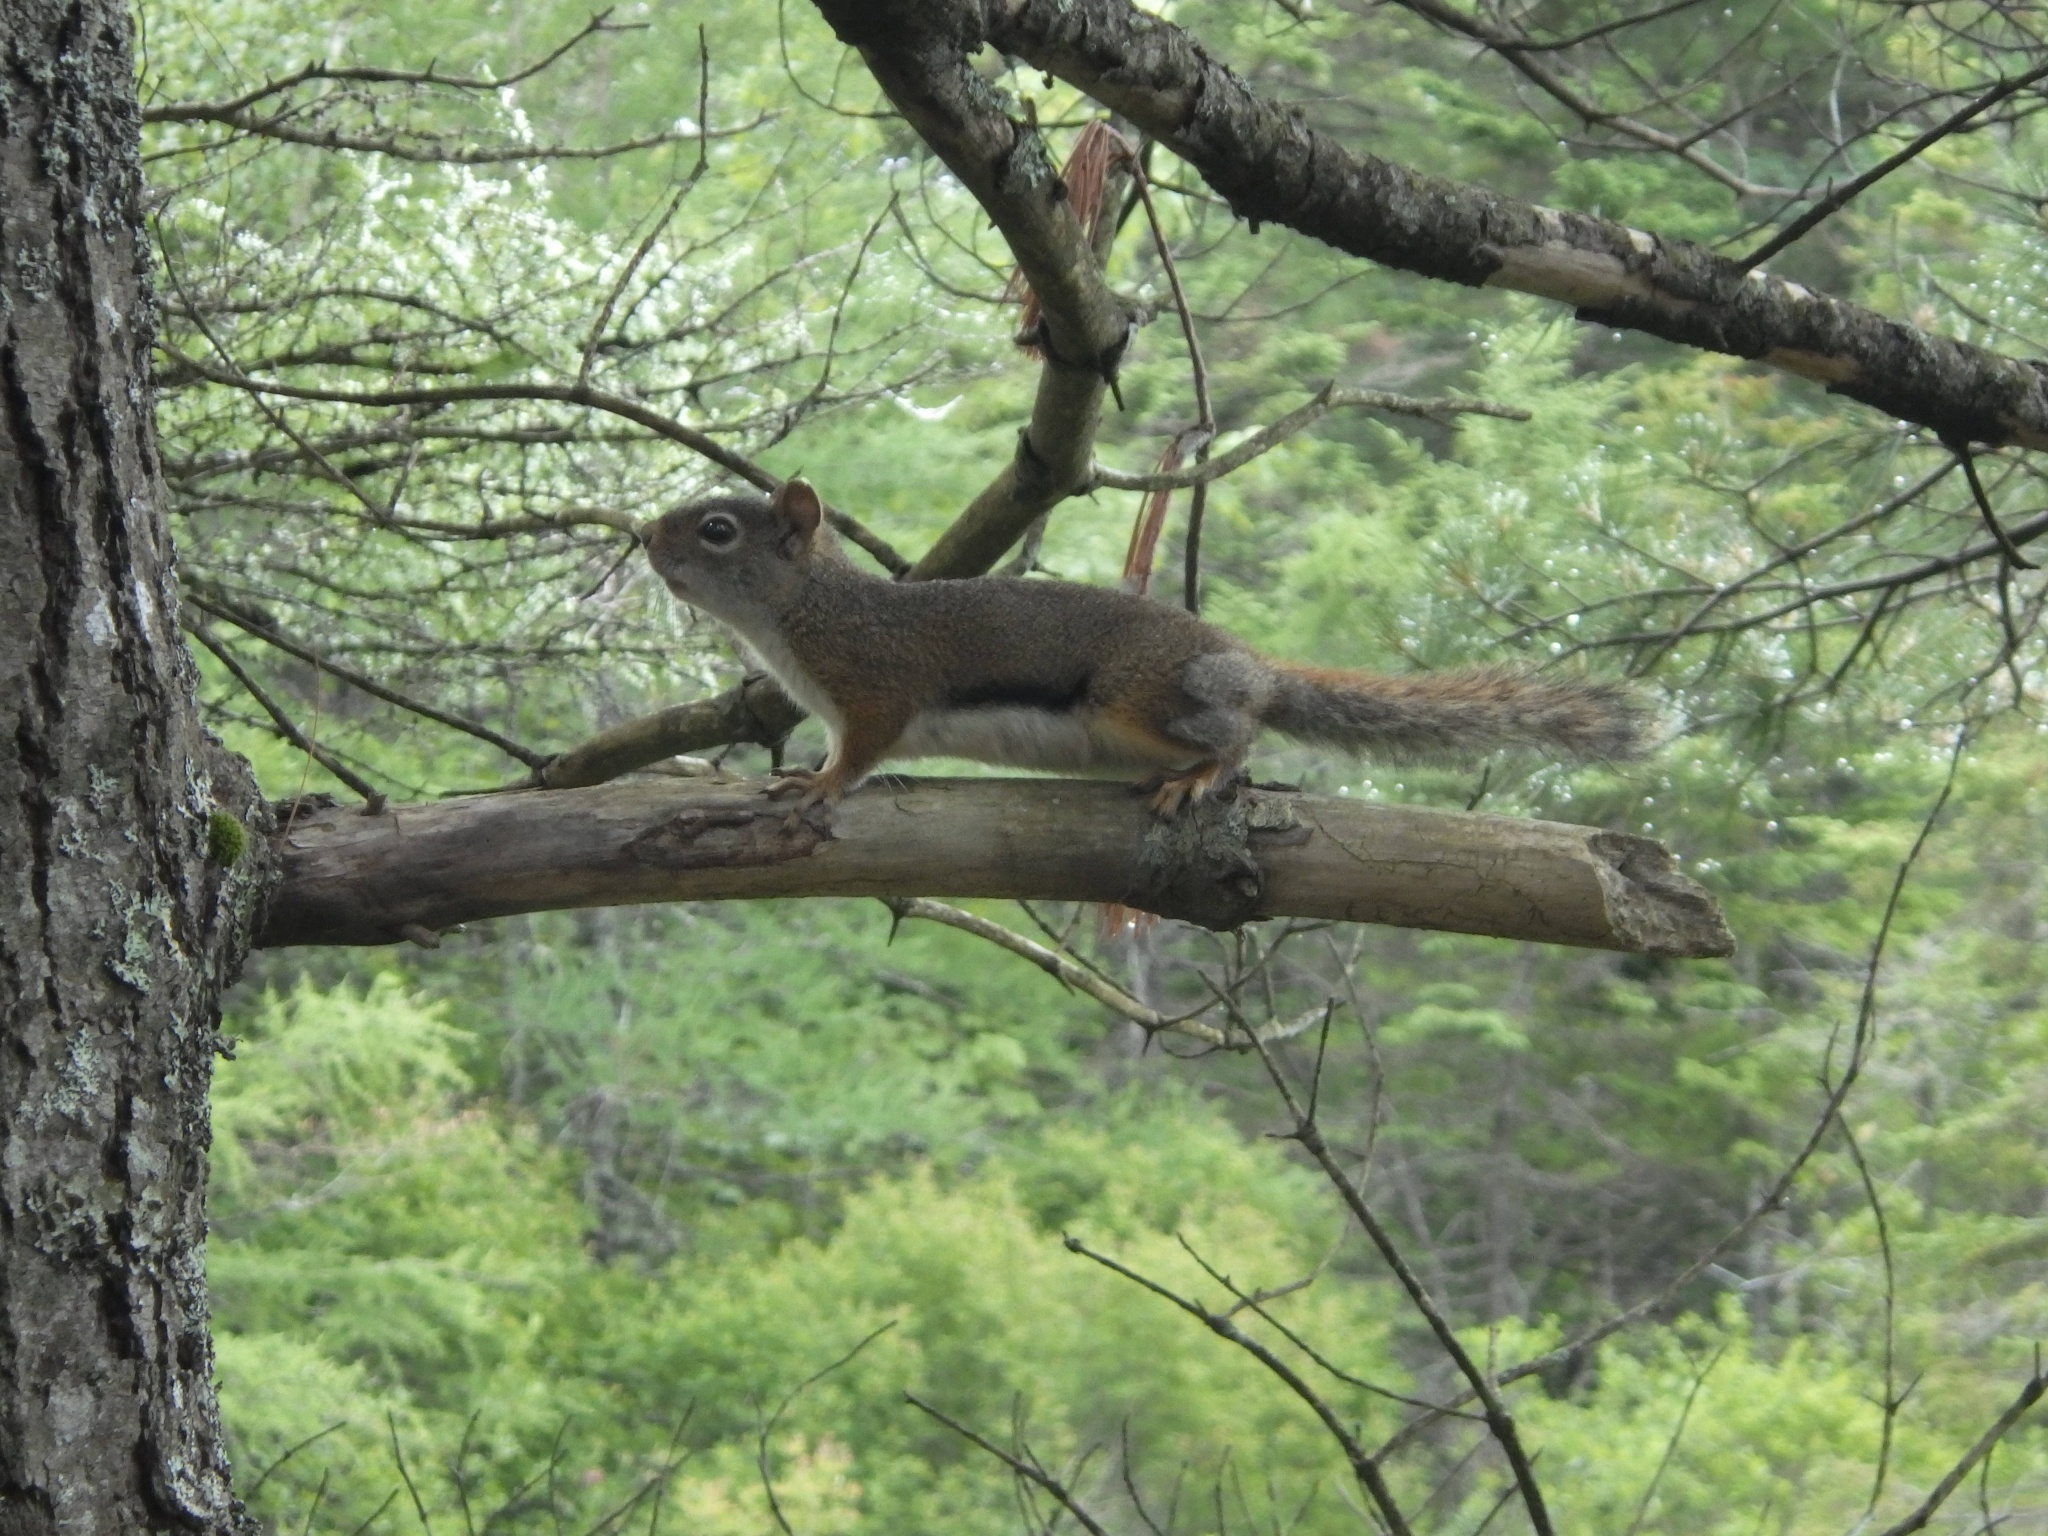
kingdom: Animalia
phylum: Chordata
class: Mammalia
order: Rodentia
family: Sciuridae
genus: Tamiasciurus
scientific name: Tamiasciurus hudsonicus
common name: Red squirrel
